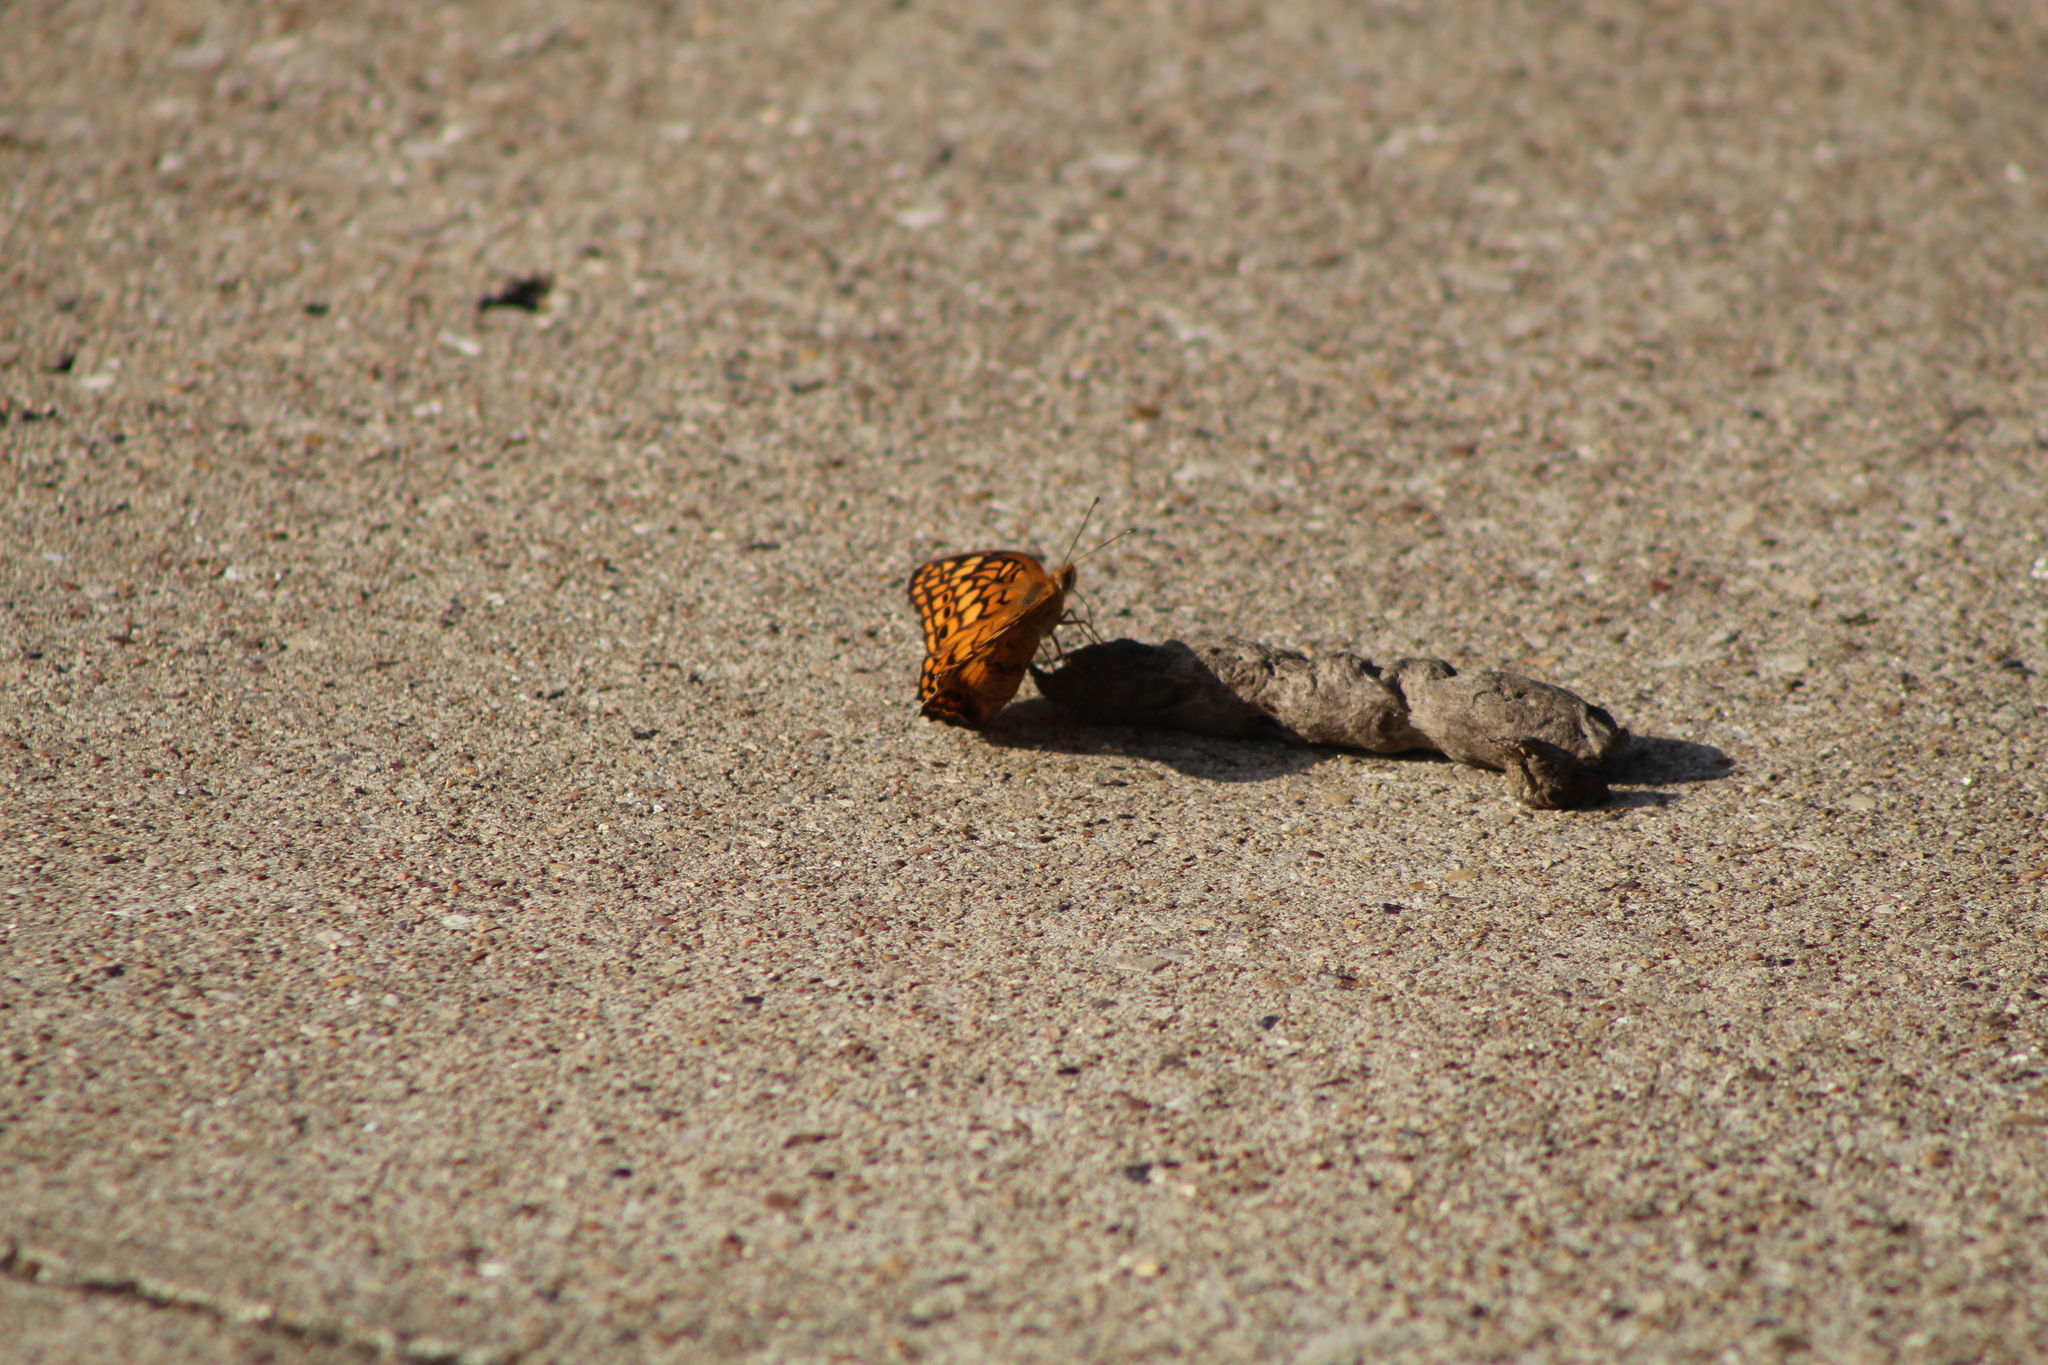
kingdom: Animalia
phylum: Arthropoda
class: Insecta
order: Lepidoptera
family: Nymphalidae
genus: Euptoieta
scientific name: Euptoieta claudia
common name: Variegated fritillary
